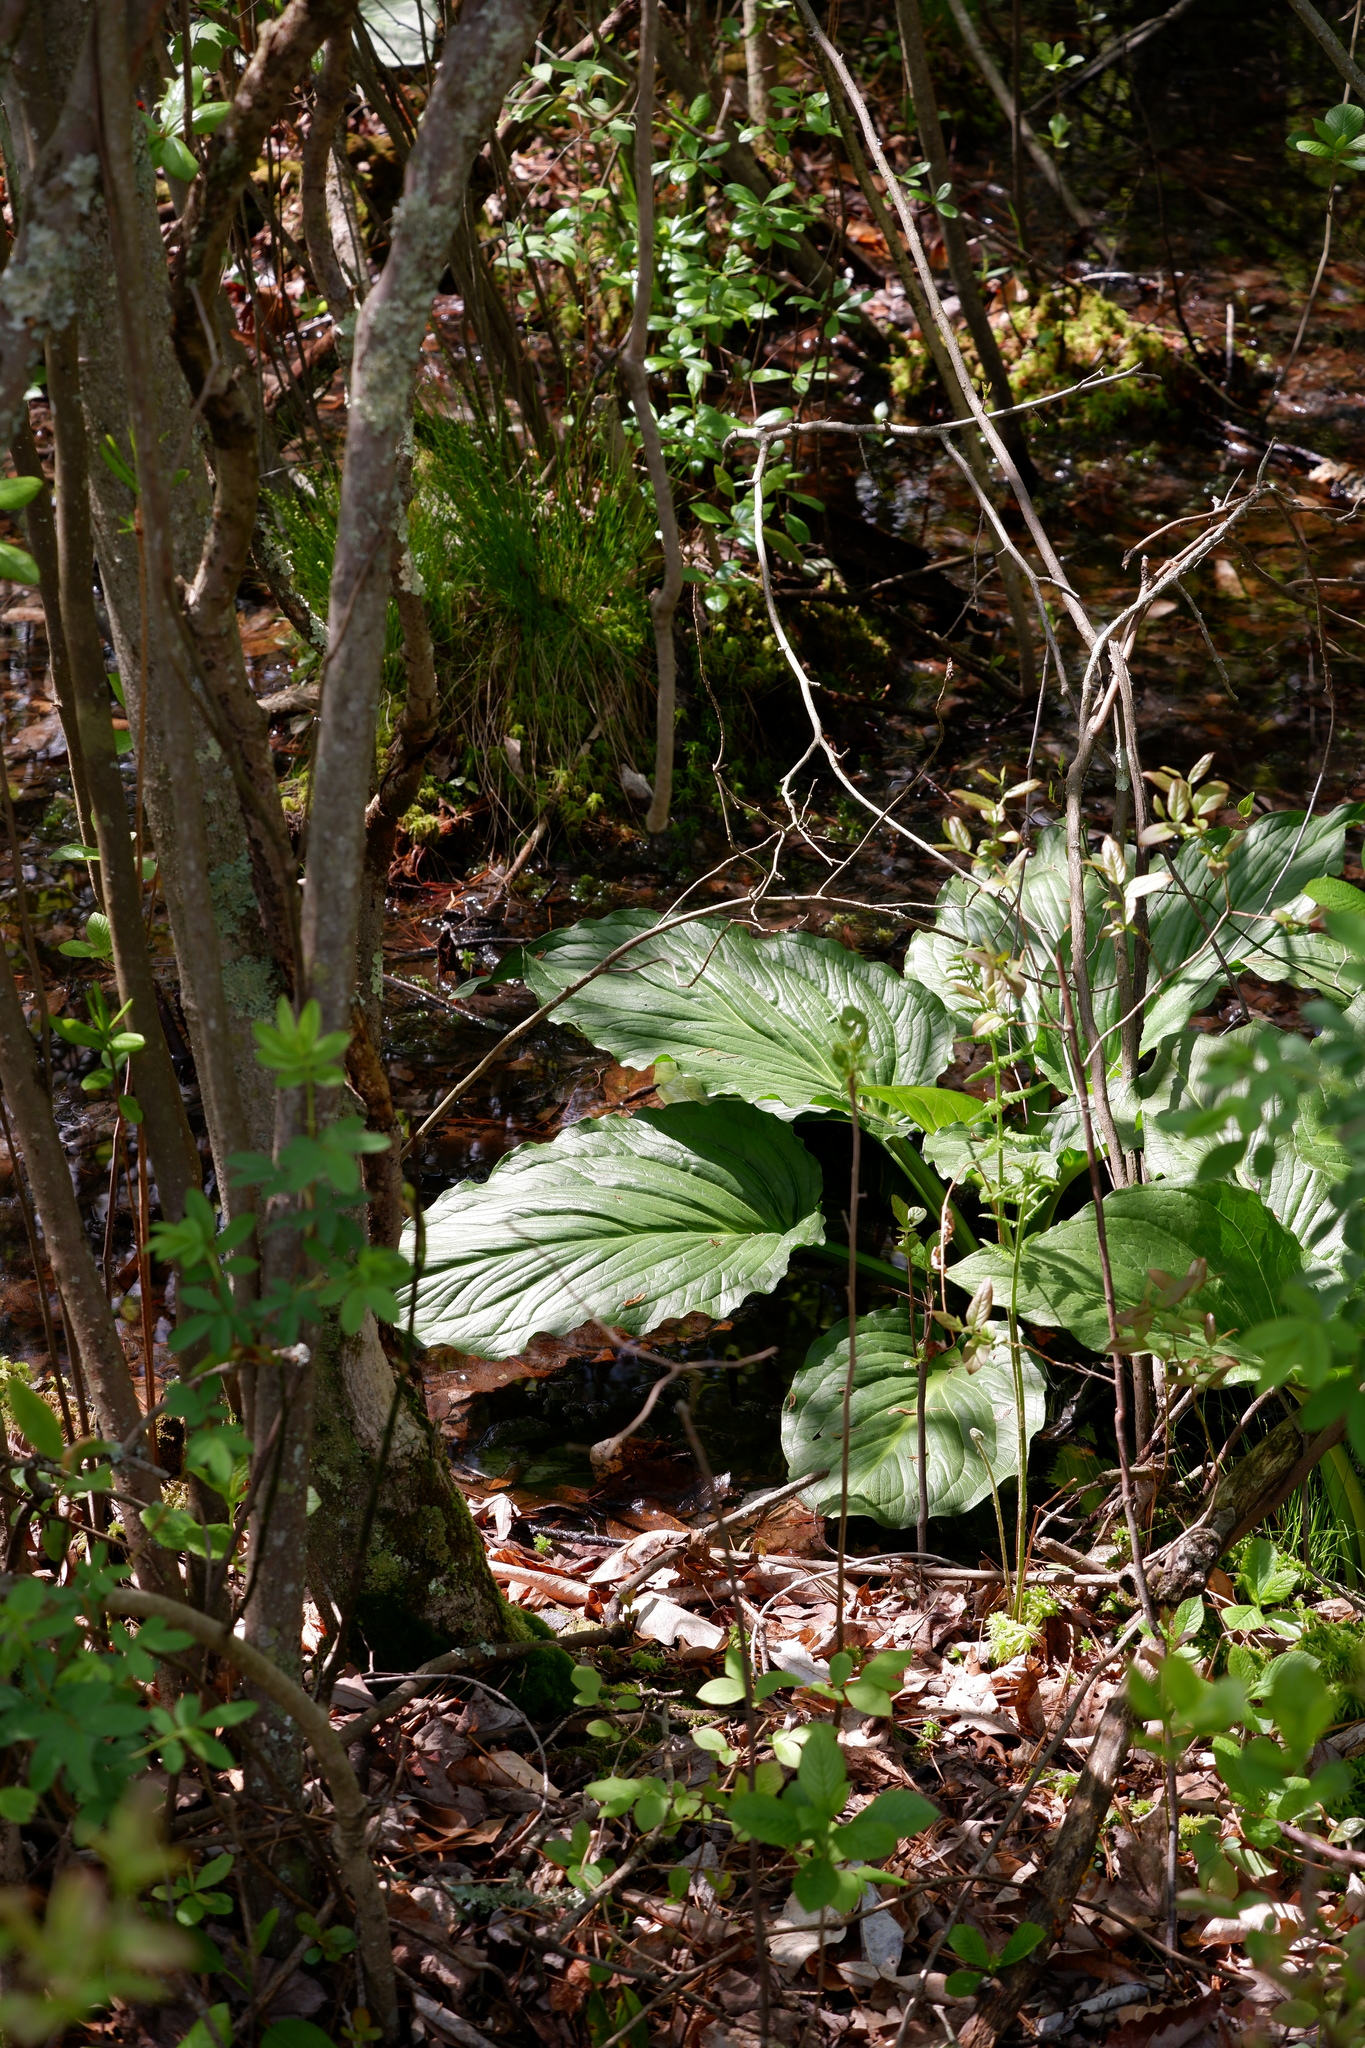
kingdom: Plantae
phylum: Tracheophyta
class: Liliopsida
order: Alismatales
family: Araceae
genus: Symplocarpus
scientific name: Symplocarpus foetidus
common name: Eastern skunk cabbage
